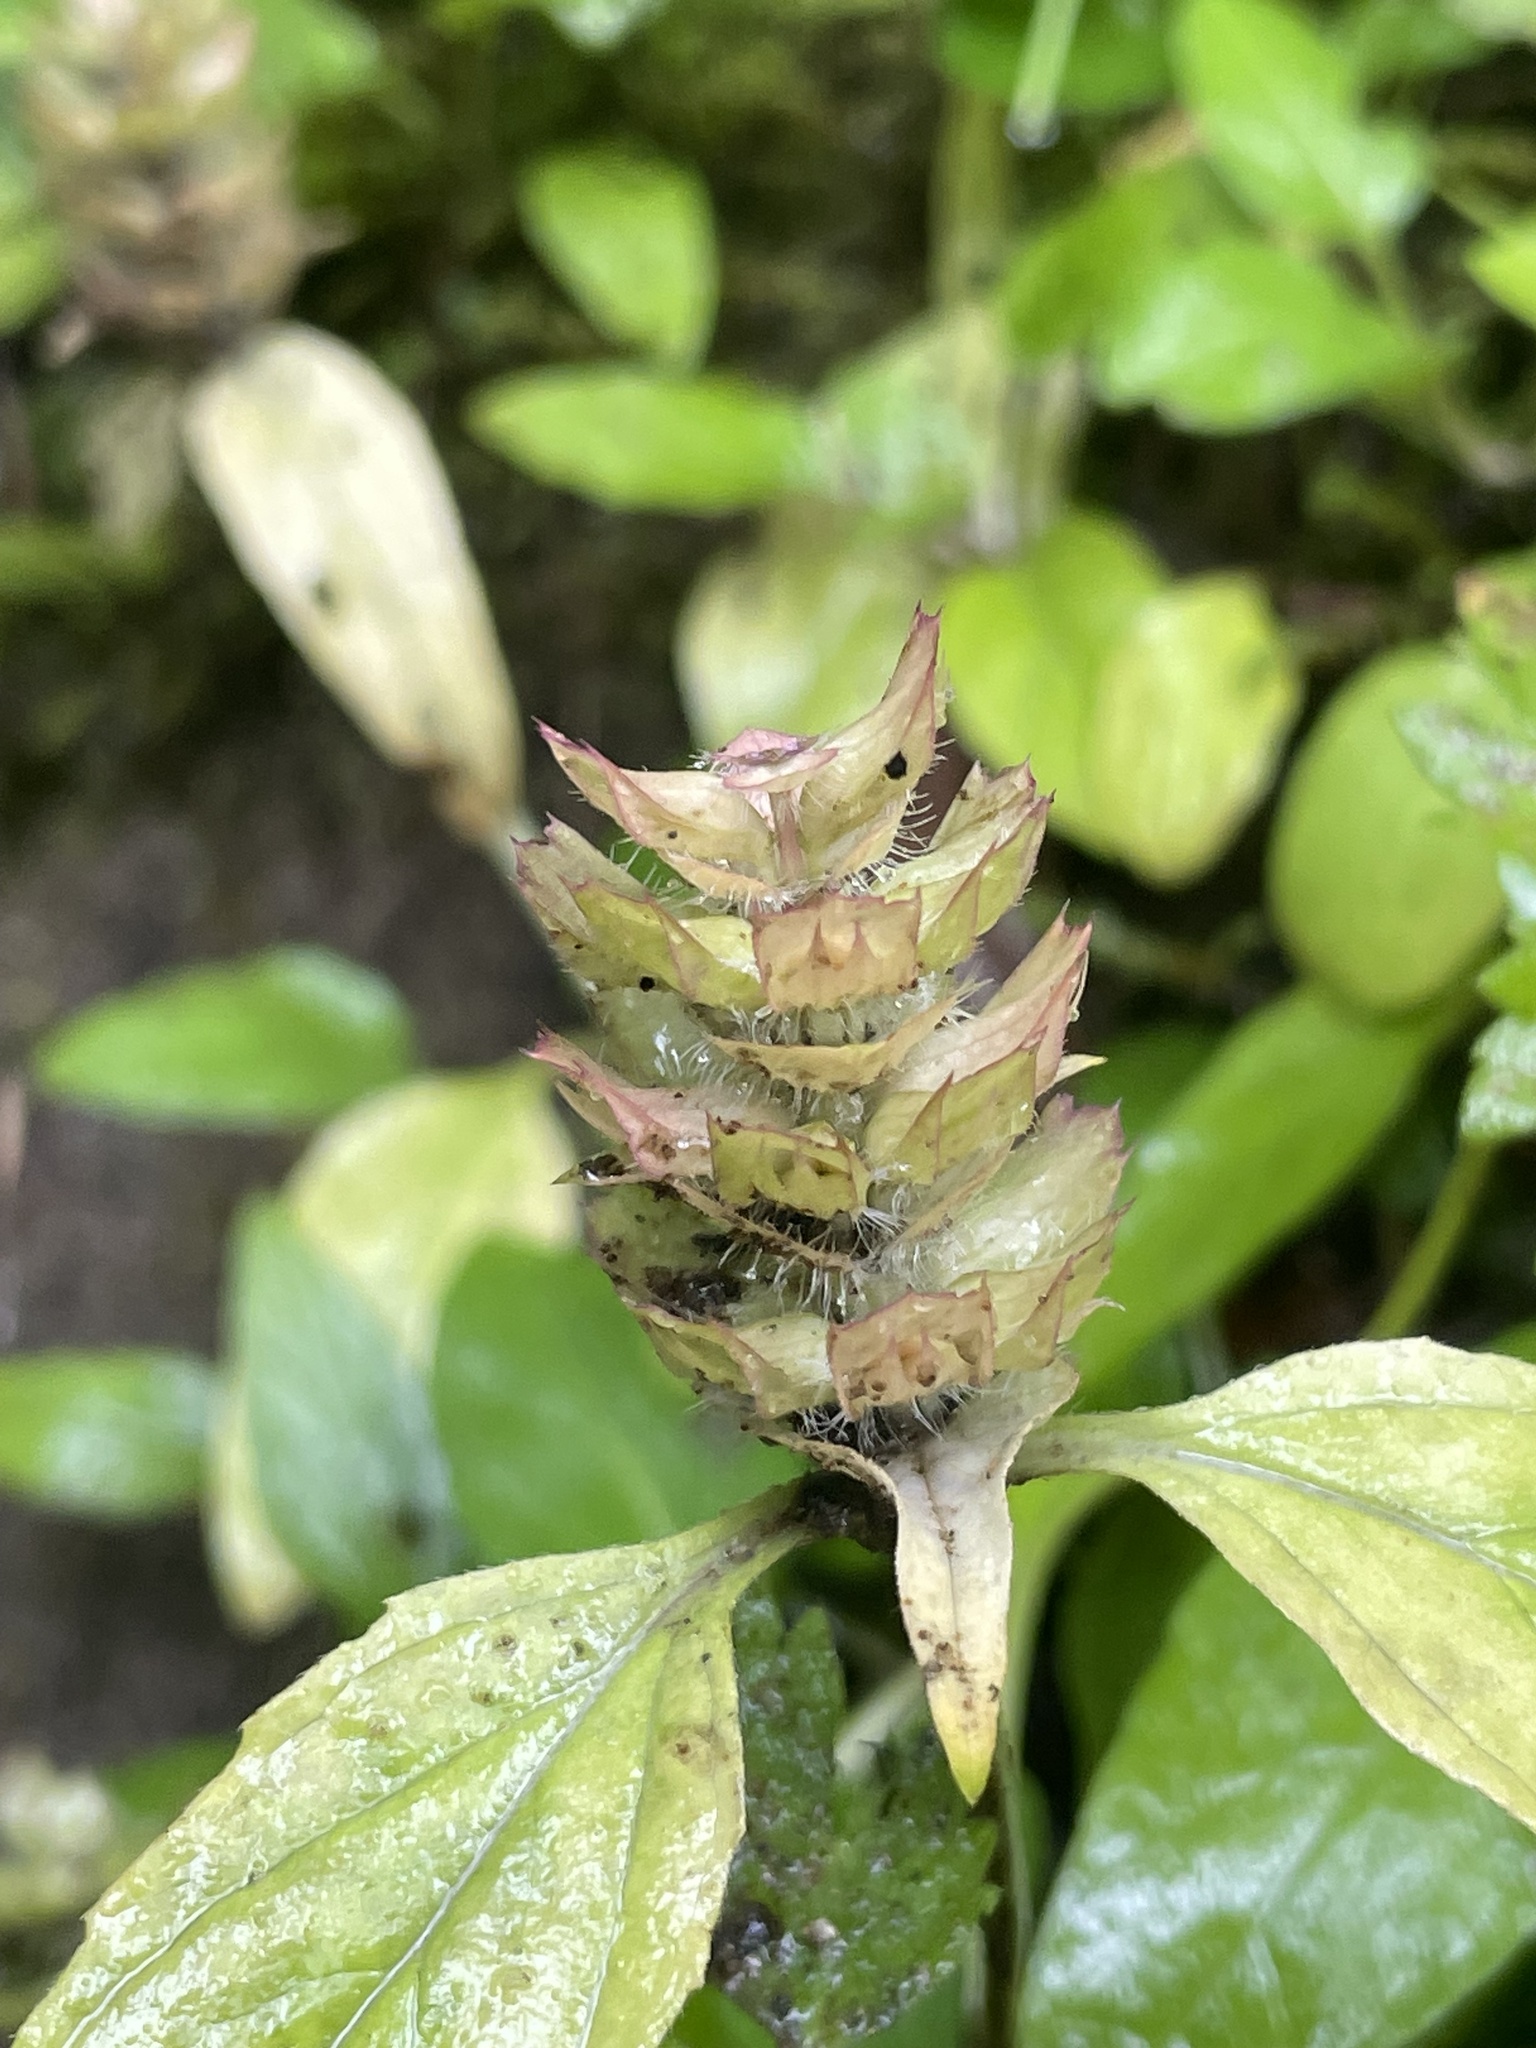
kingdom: Plantae
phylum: Tracheophyta
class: Magnoliopsida
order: Lamiales
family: Lamiaceae
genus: Prunella
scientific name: Prunella vulgaris
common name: Heal-all
